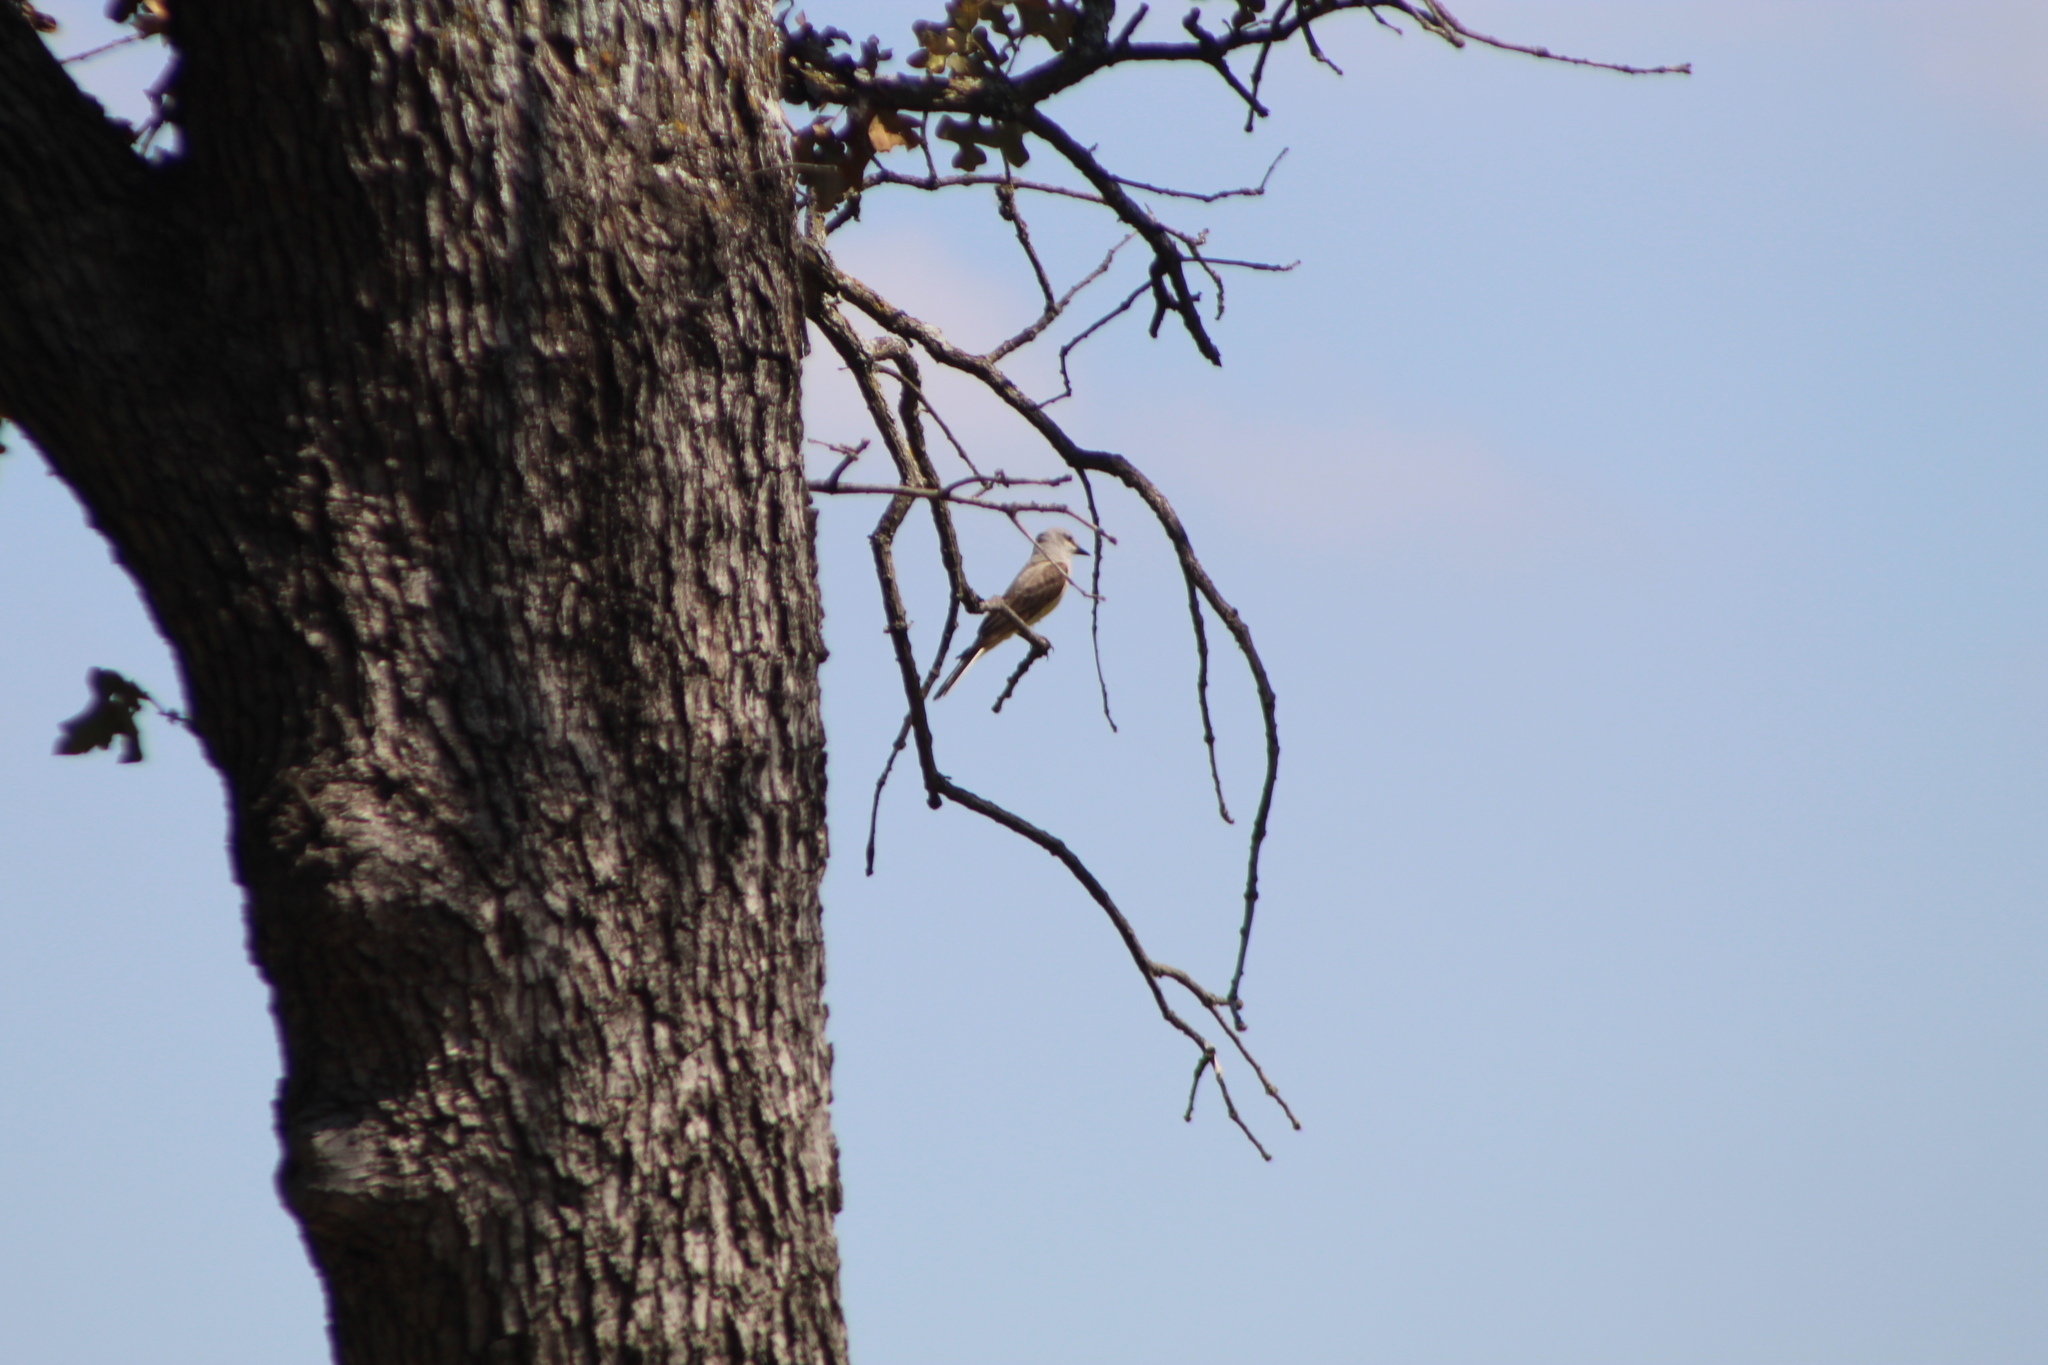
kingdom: Animalia
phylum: Chordata
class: Aves
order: Passeriformes
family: Tyrannidae
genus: Tyrannus
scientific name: Tyrannus verticalis
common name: Western kingbird
